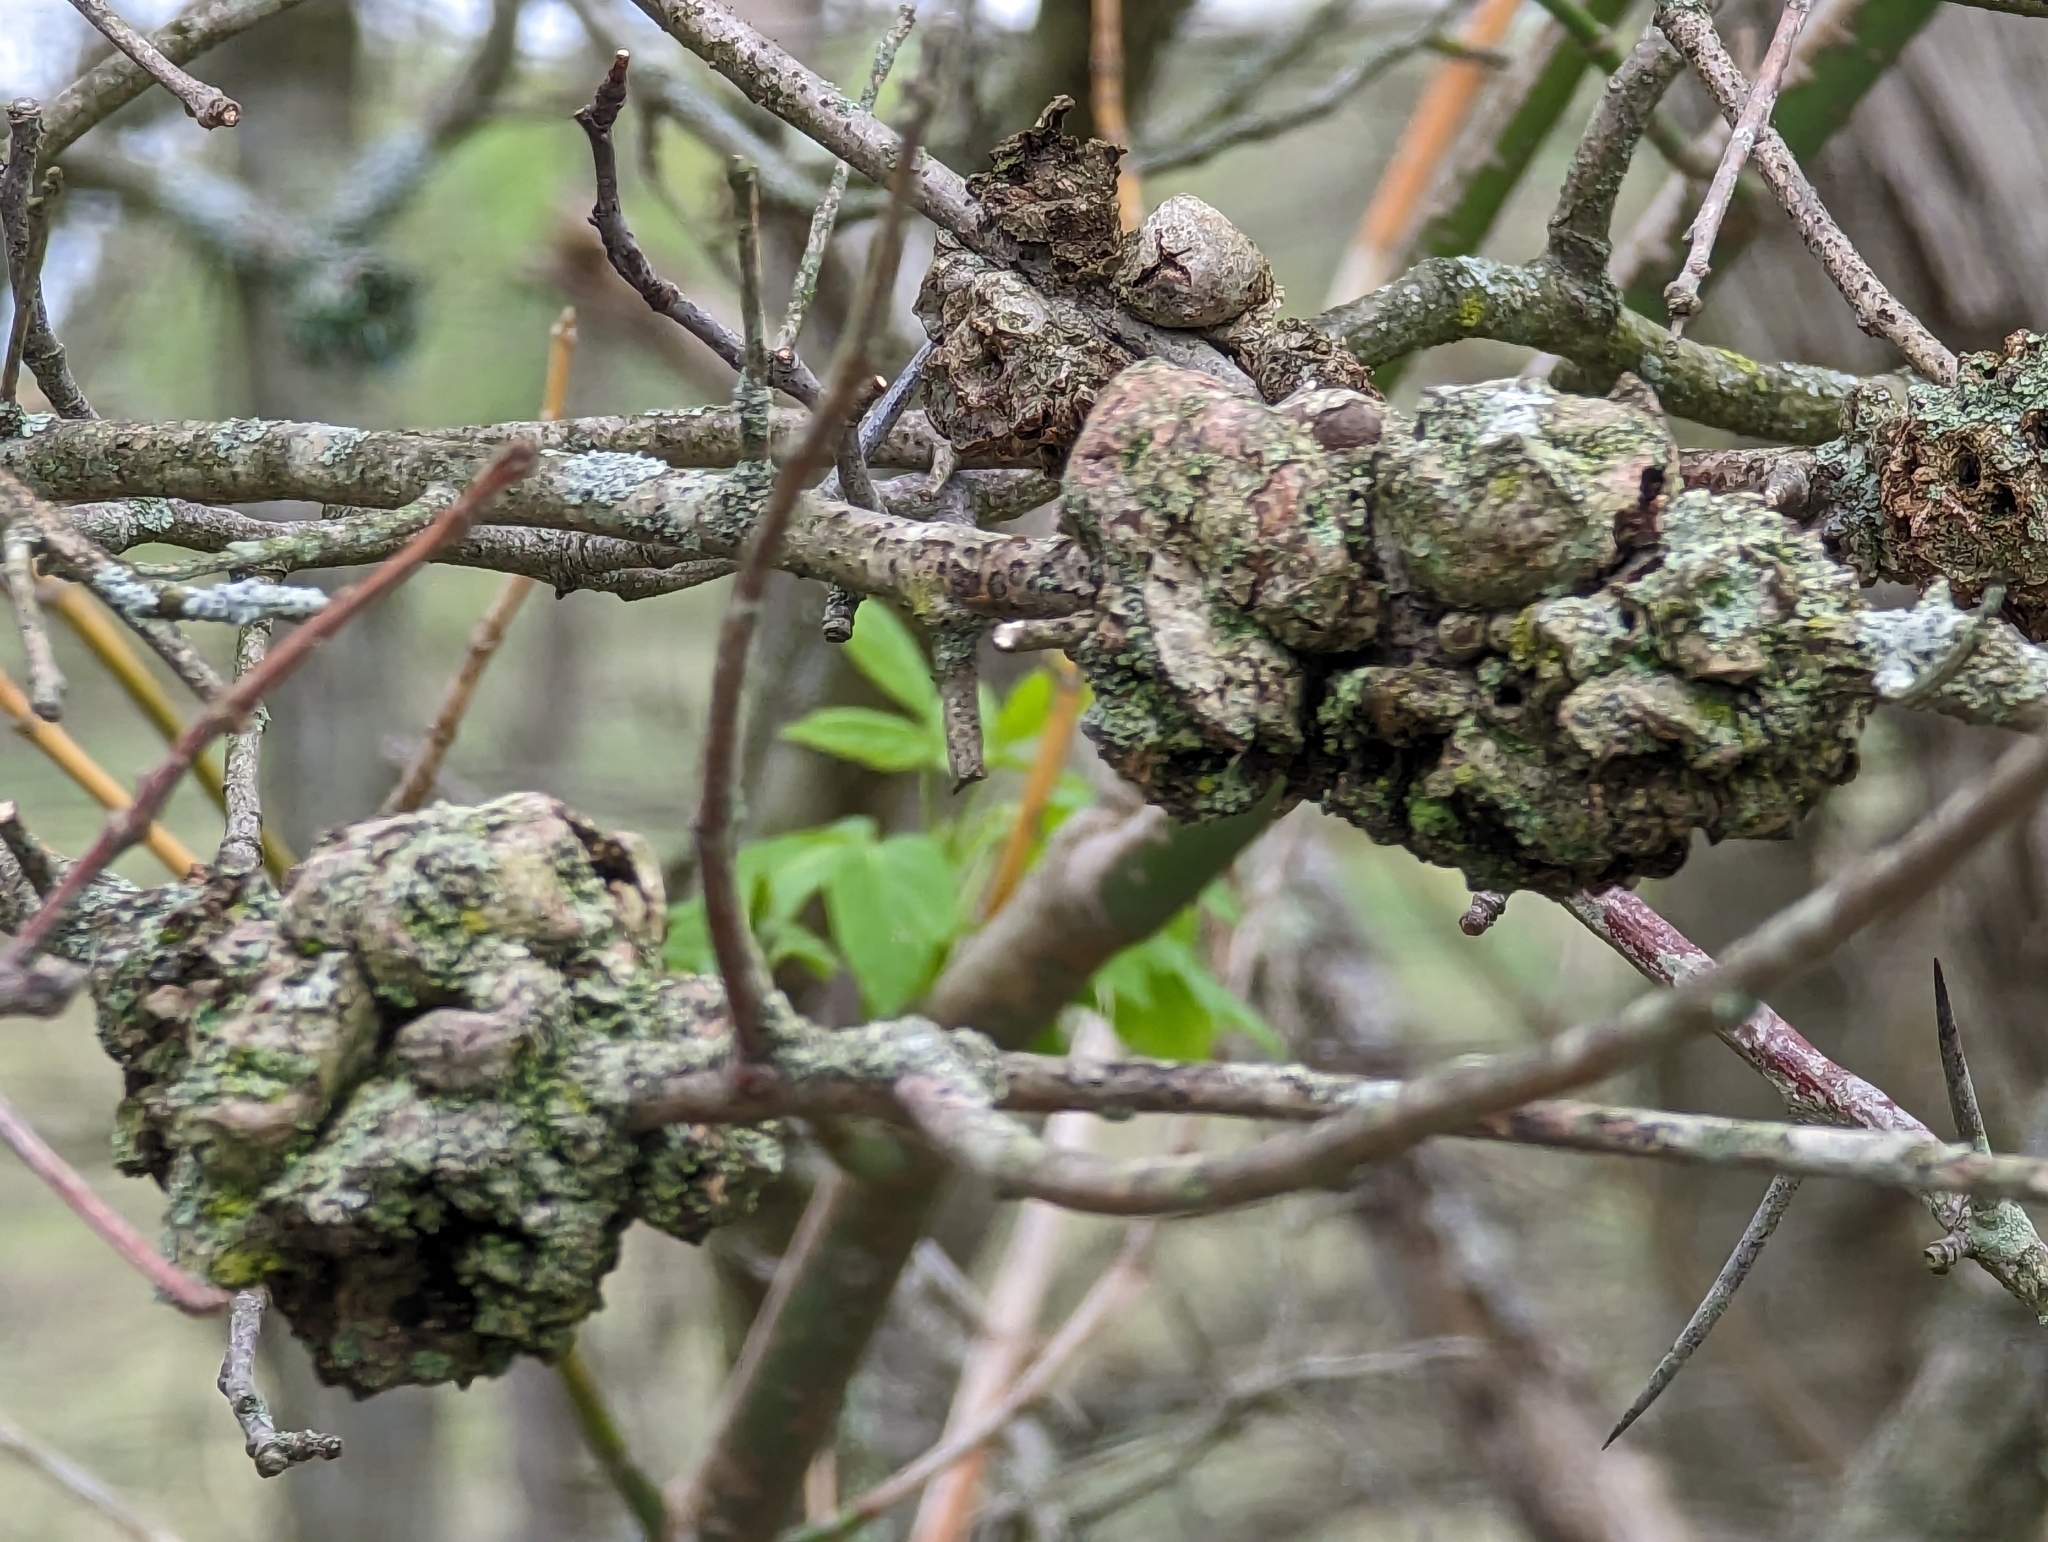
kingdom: Bacteria
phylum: Proteobacteria
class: Alphaproteobacteria
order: Rhizobiales
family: Rhizobiaceae
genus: Rhizobium
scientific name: Rhizobium Agrobacterium radiobacter
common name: Bacterial crown gall
